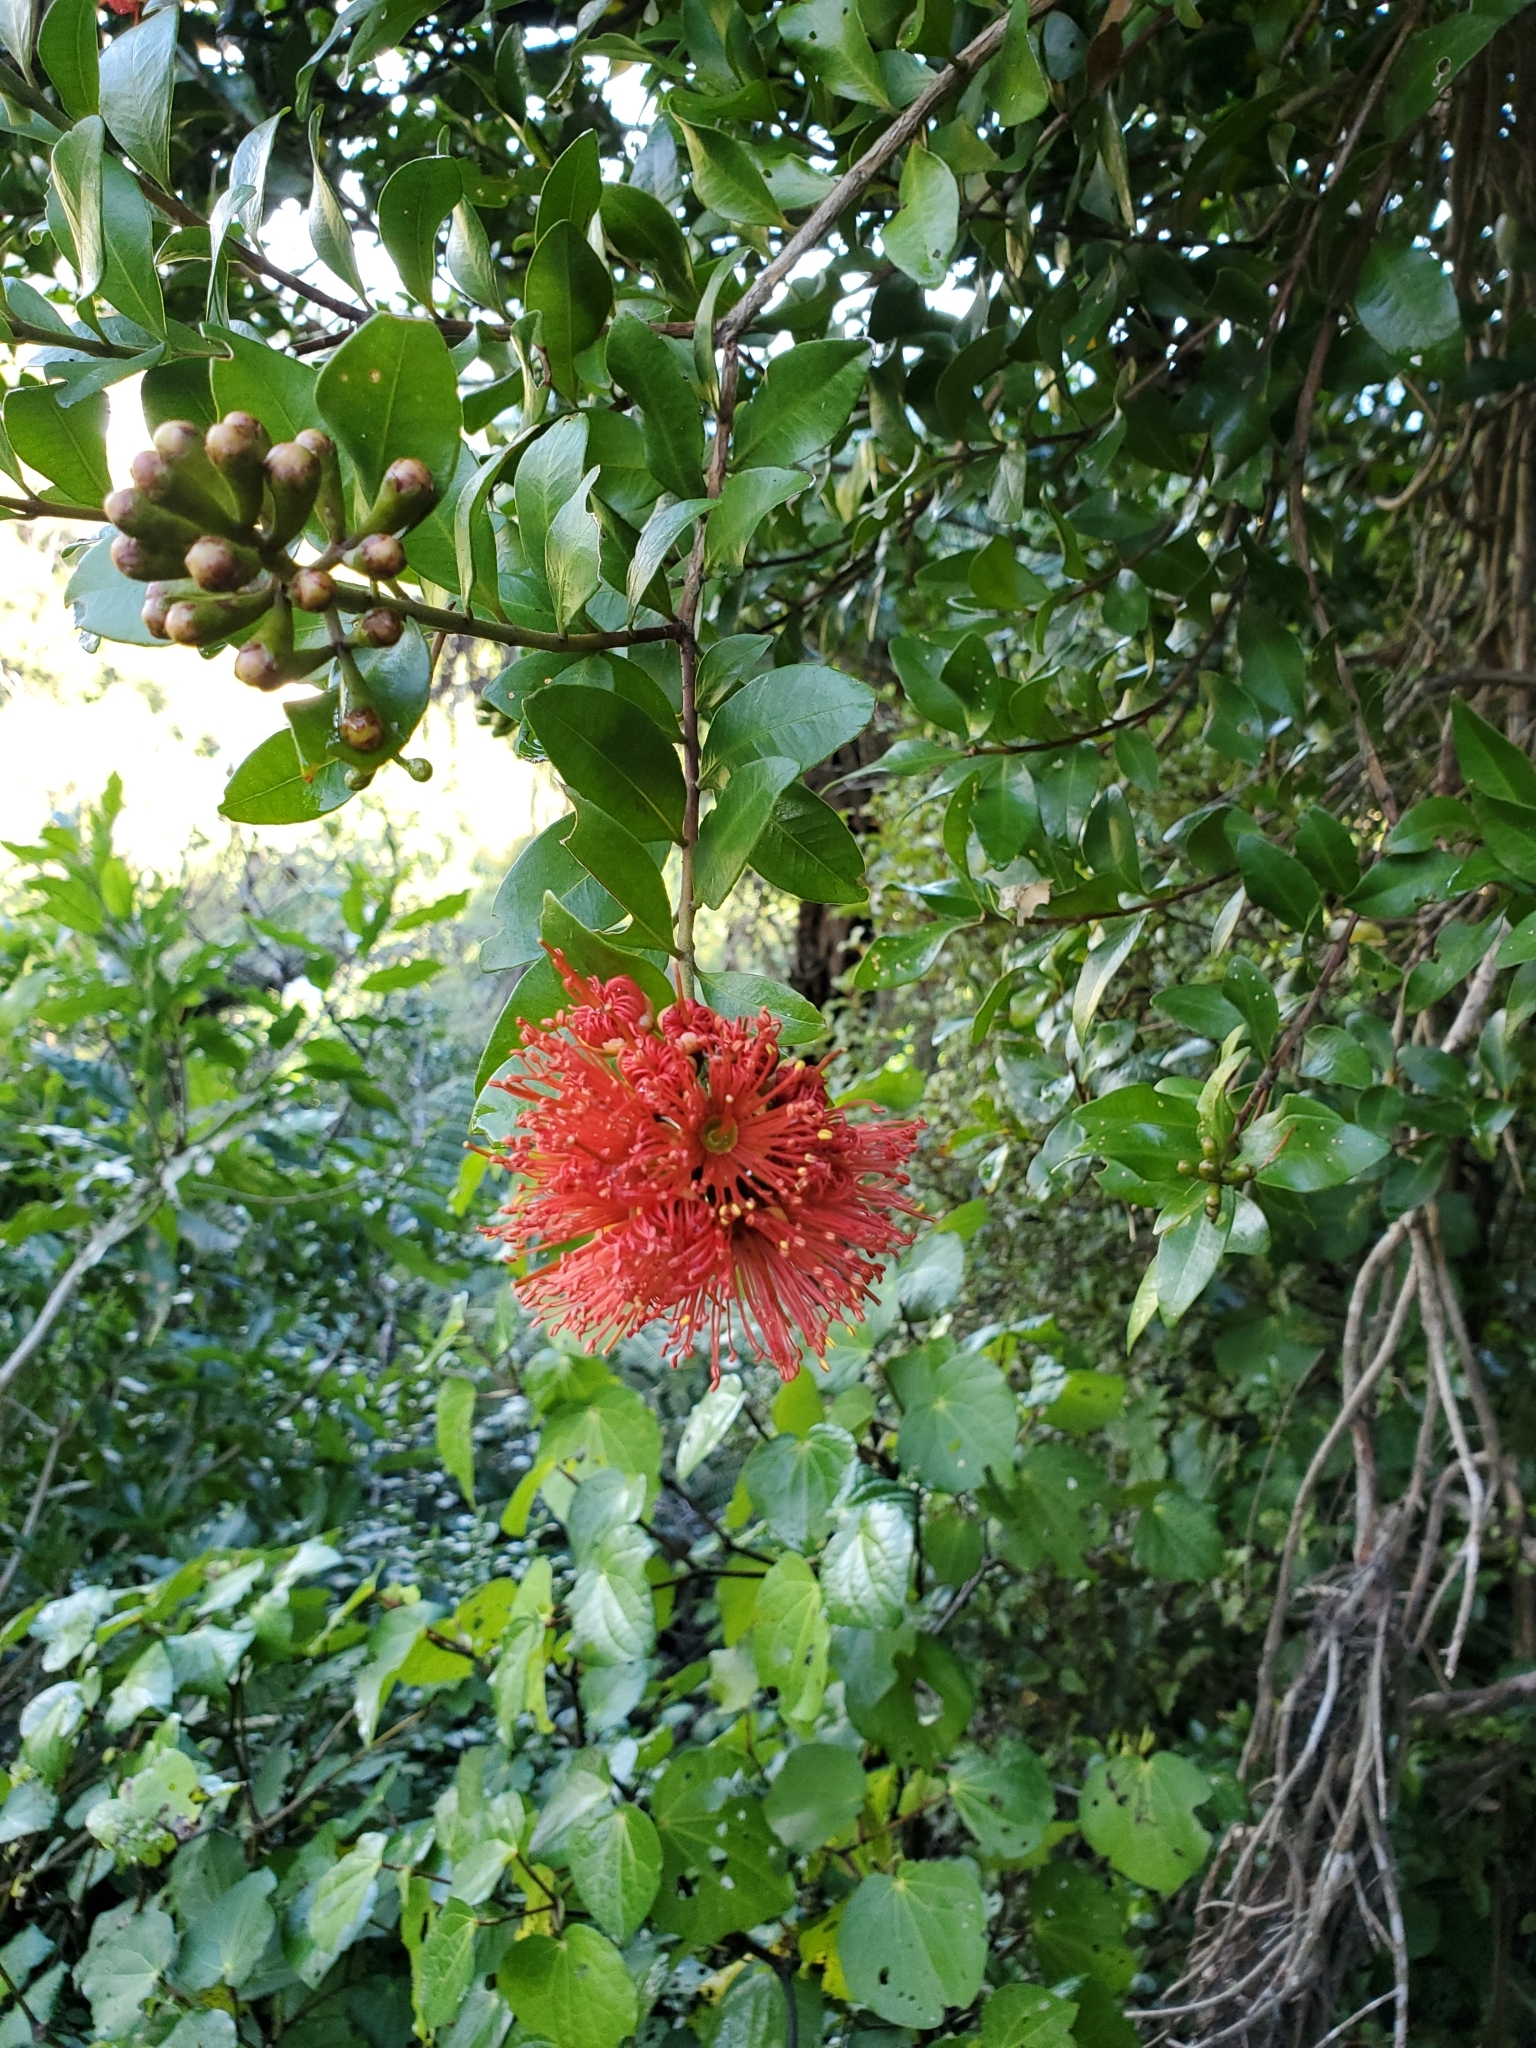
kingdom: Plantae
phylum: Tracheophyta
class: Magnoliopsida
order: Myrtales
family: Myrtaceae
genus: Metrosideros
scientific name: Metrosideros fulgens
